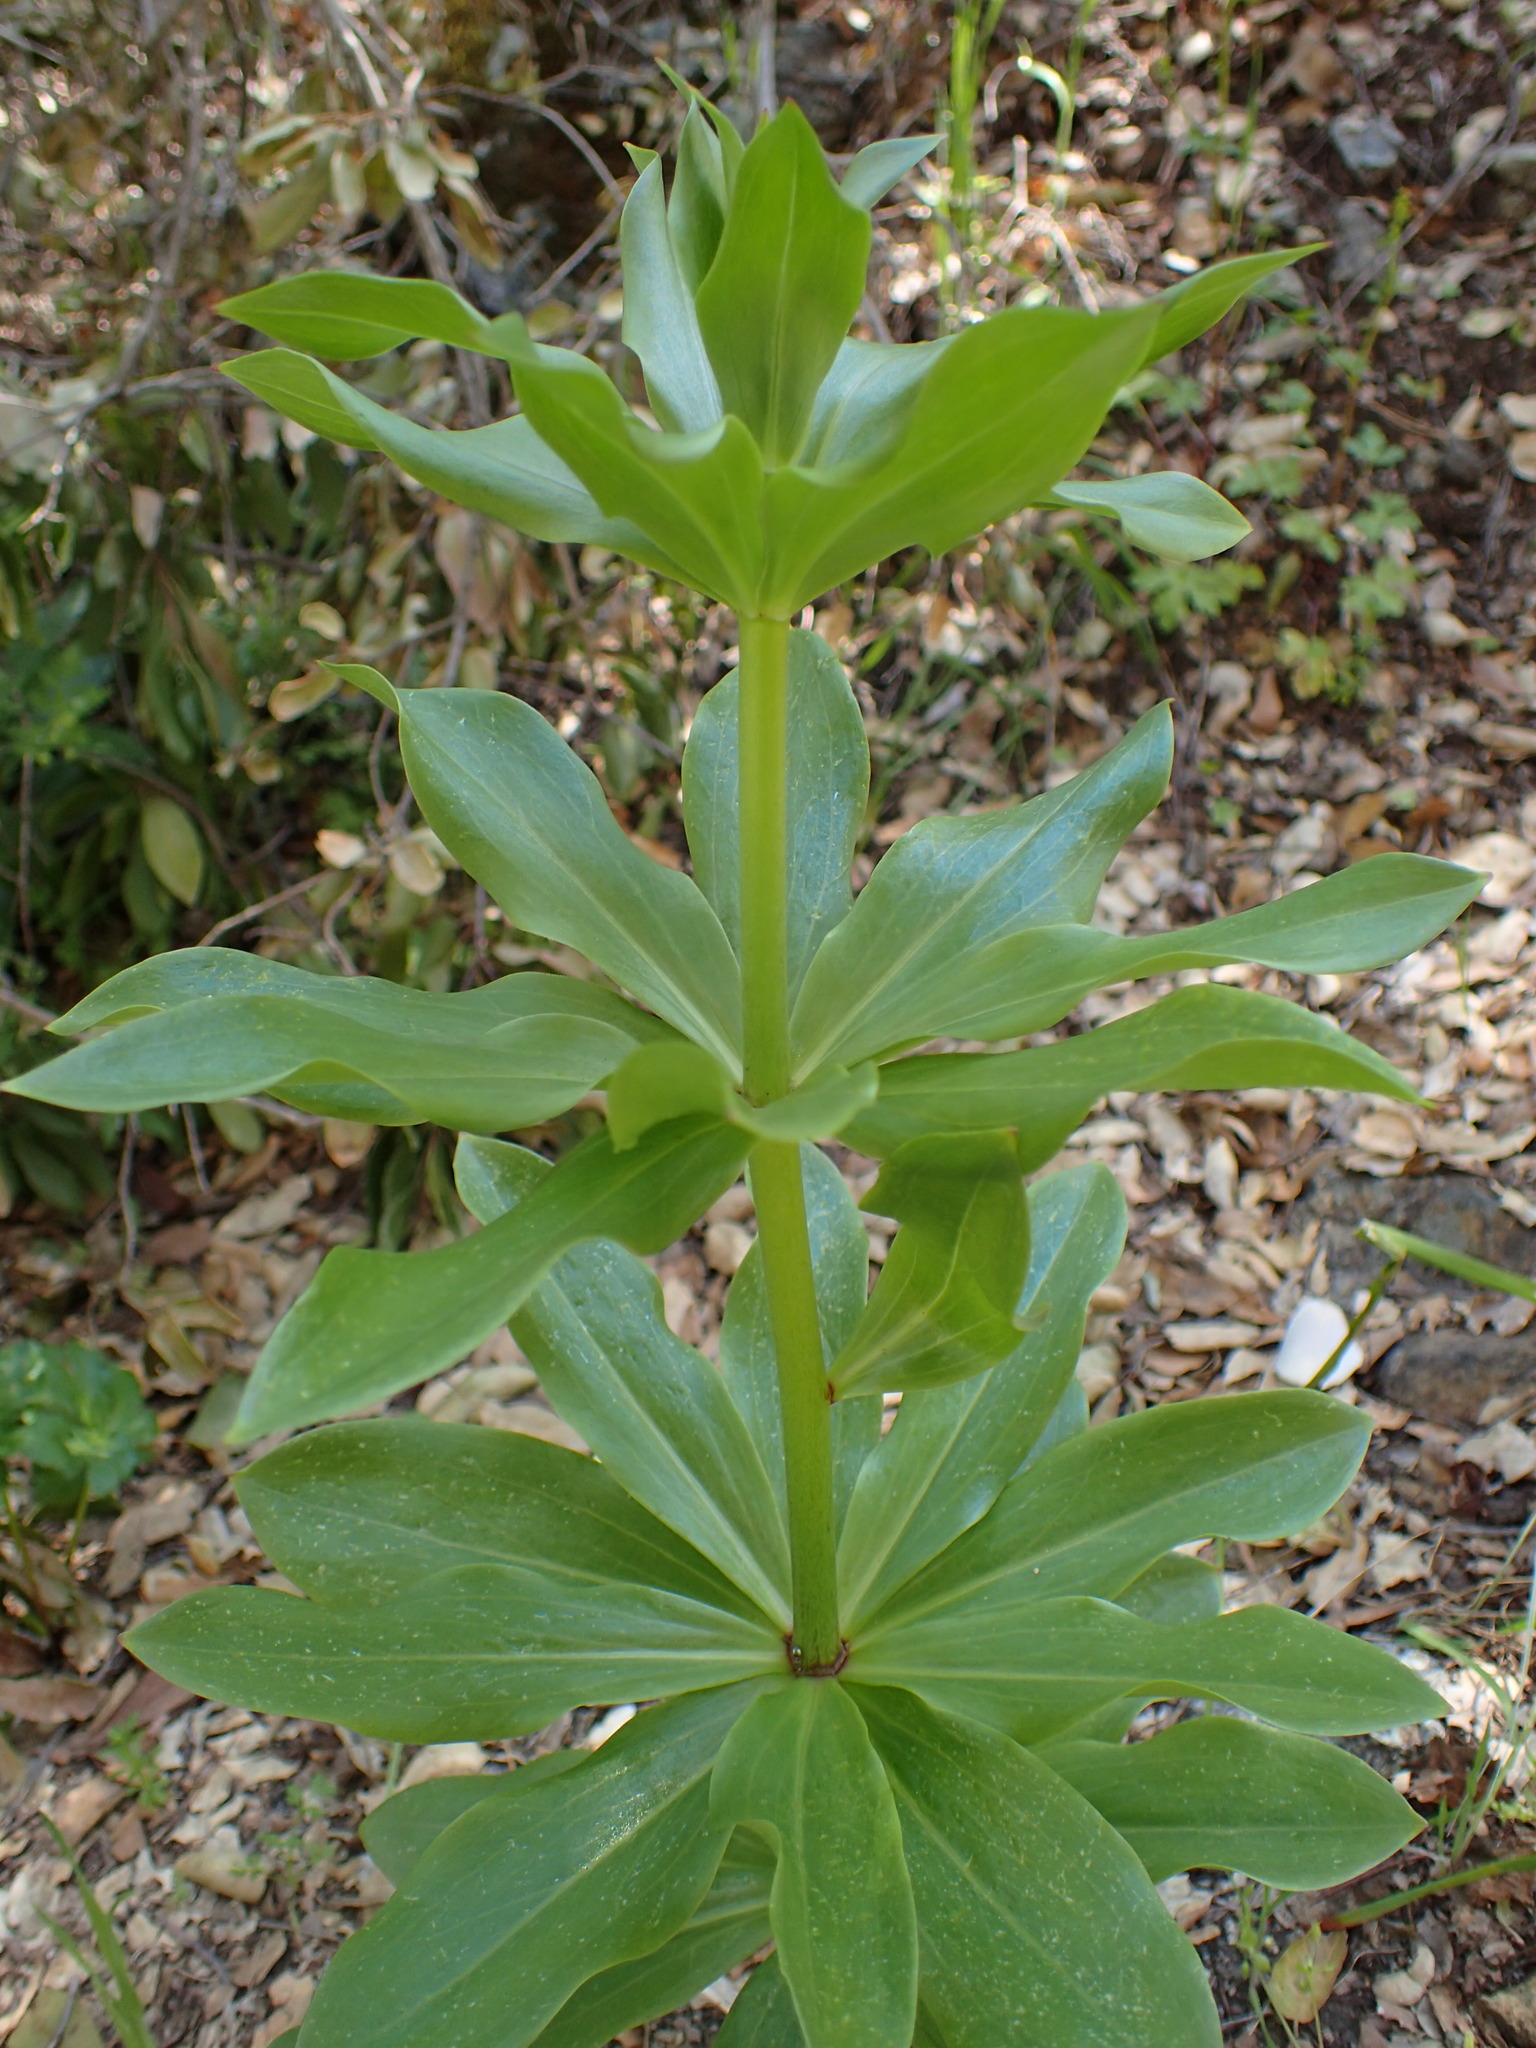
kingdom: Plantae
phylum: Tracheophyta
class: Liliopsida
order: Liliales
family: Liliaceae
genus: Lilium
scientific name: Lilium humboldtii
